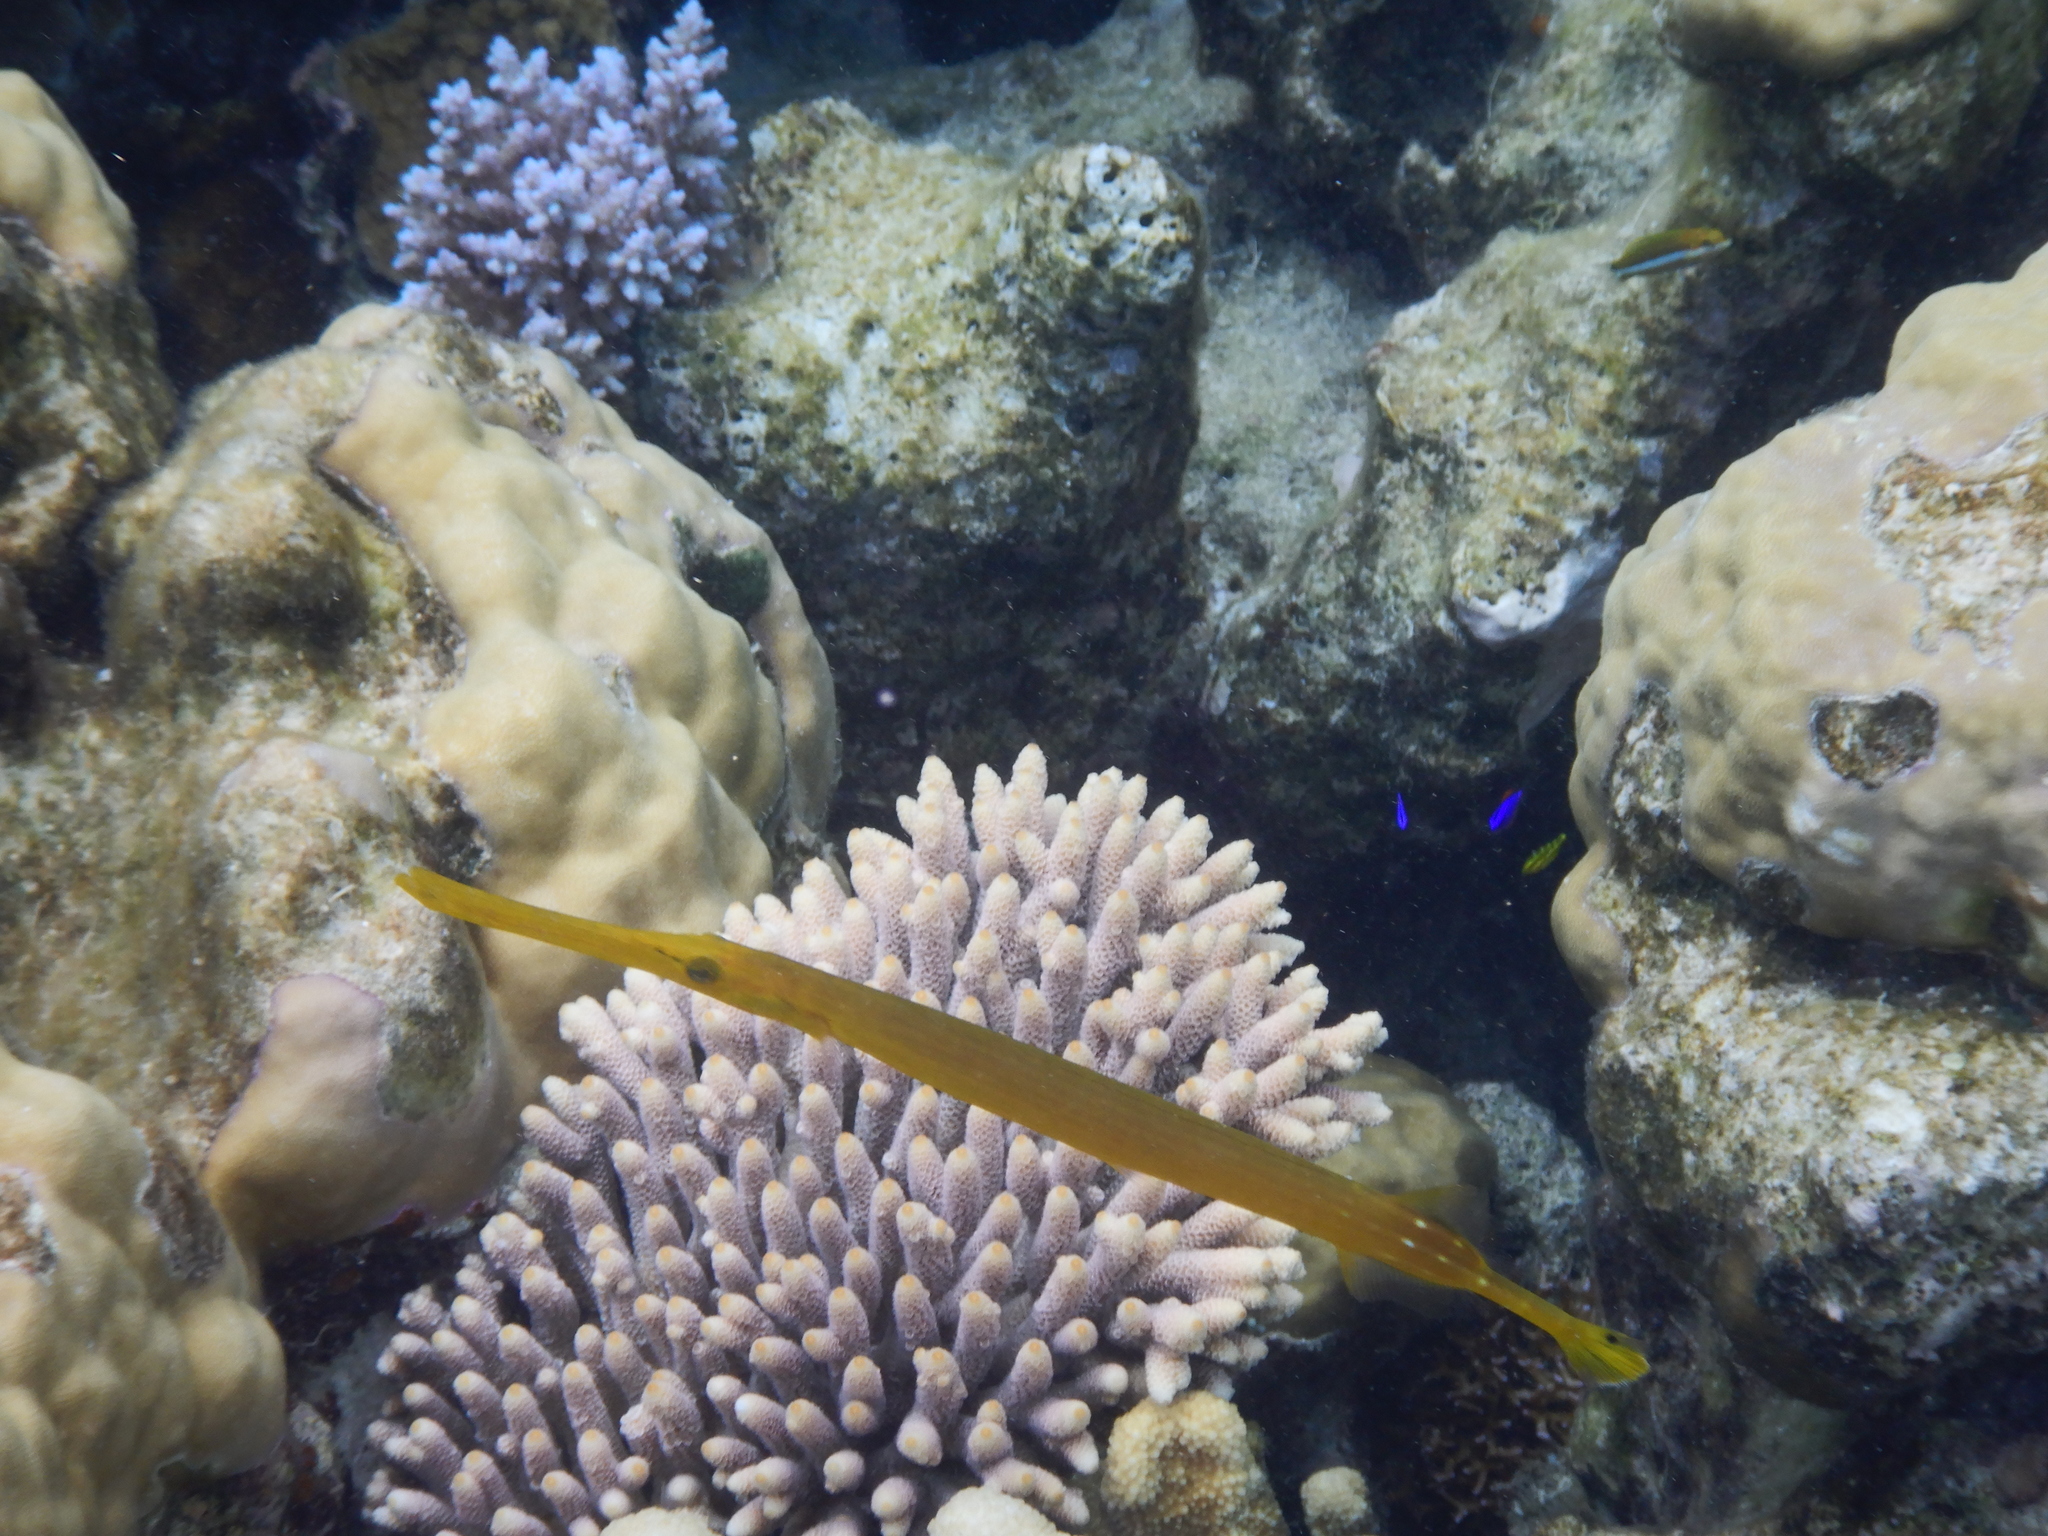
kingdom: Animalia
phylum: Chordata
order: Syngnathiformes
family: Aulostomidae
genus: Aulostomus
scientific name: Aulostomus chinensis
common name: Chinese trumpetfish
